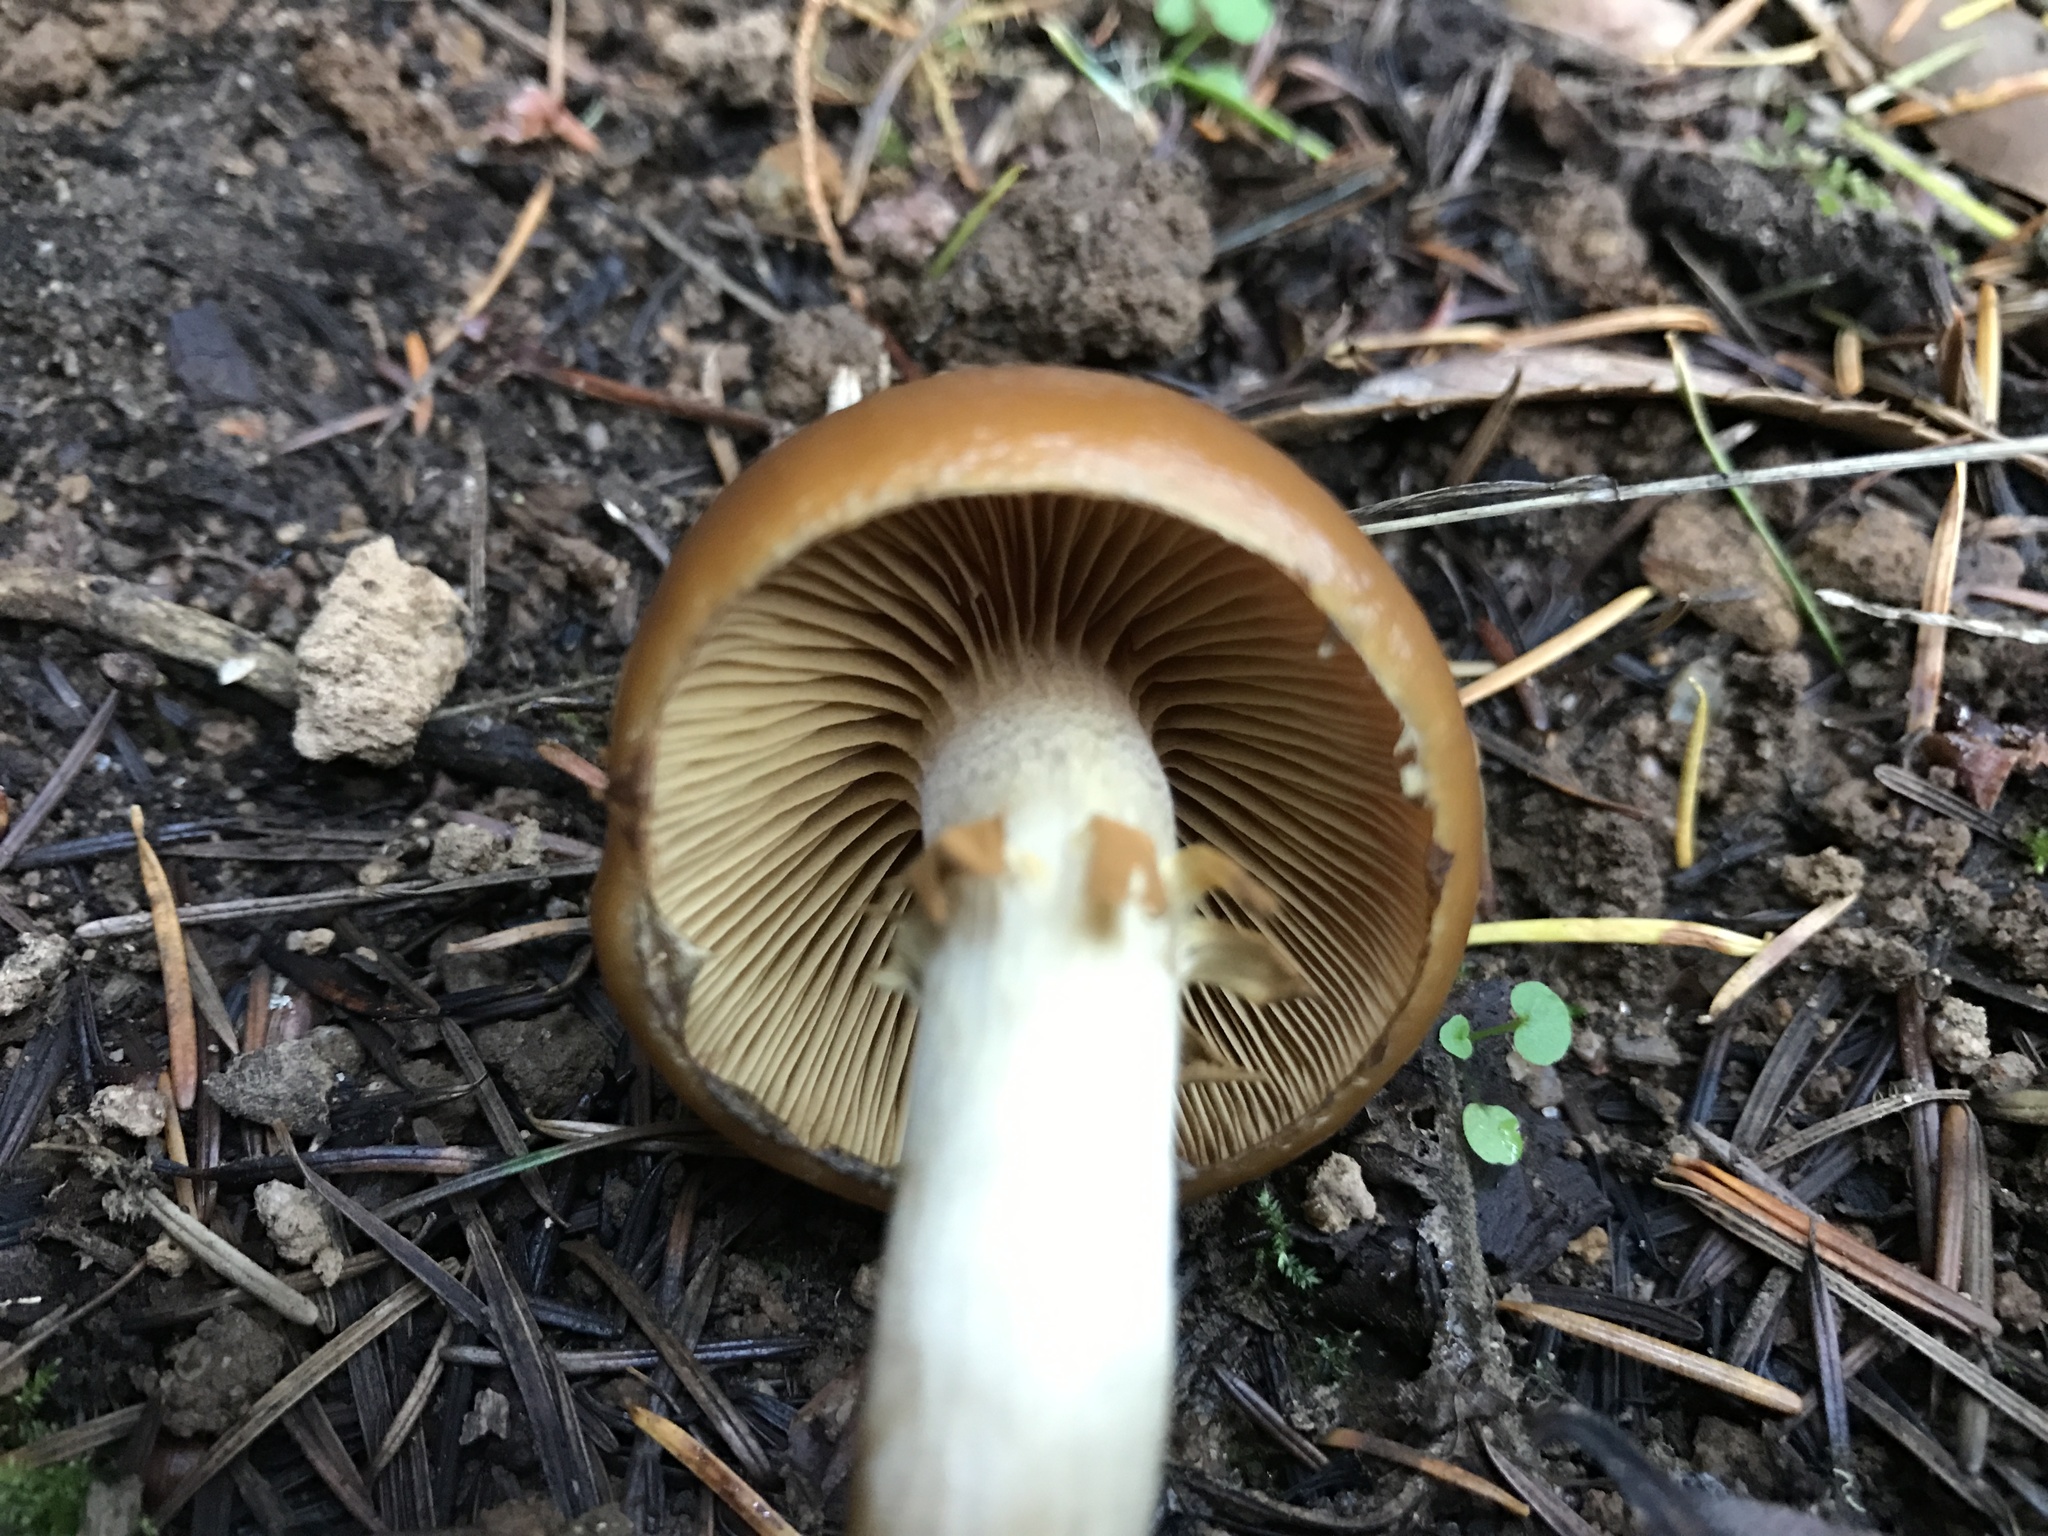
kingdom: Fungi
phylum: Basidiomycota
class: Agaricomycetes
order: Agaricales
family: Hymenogastraceae
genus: Galerina
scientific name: Galerina marginata
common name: Funeral bell
